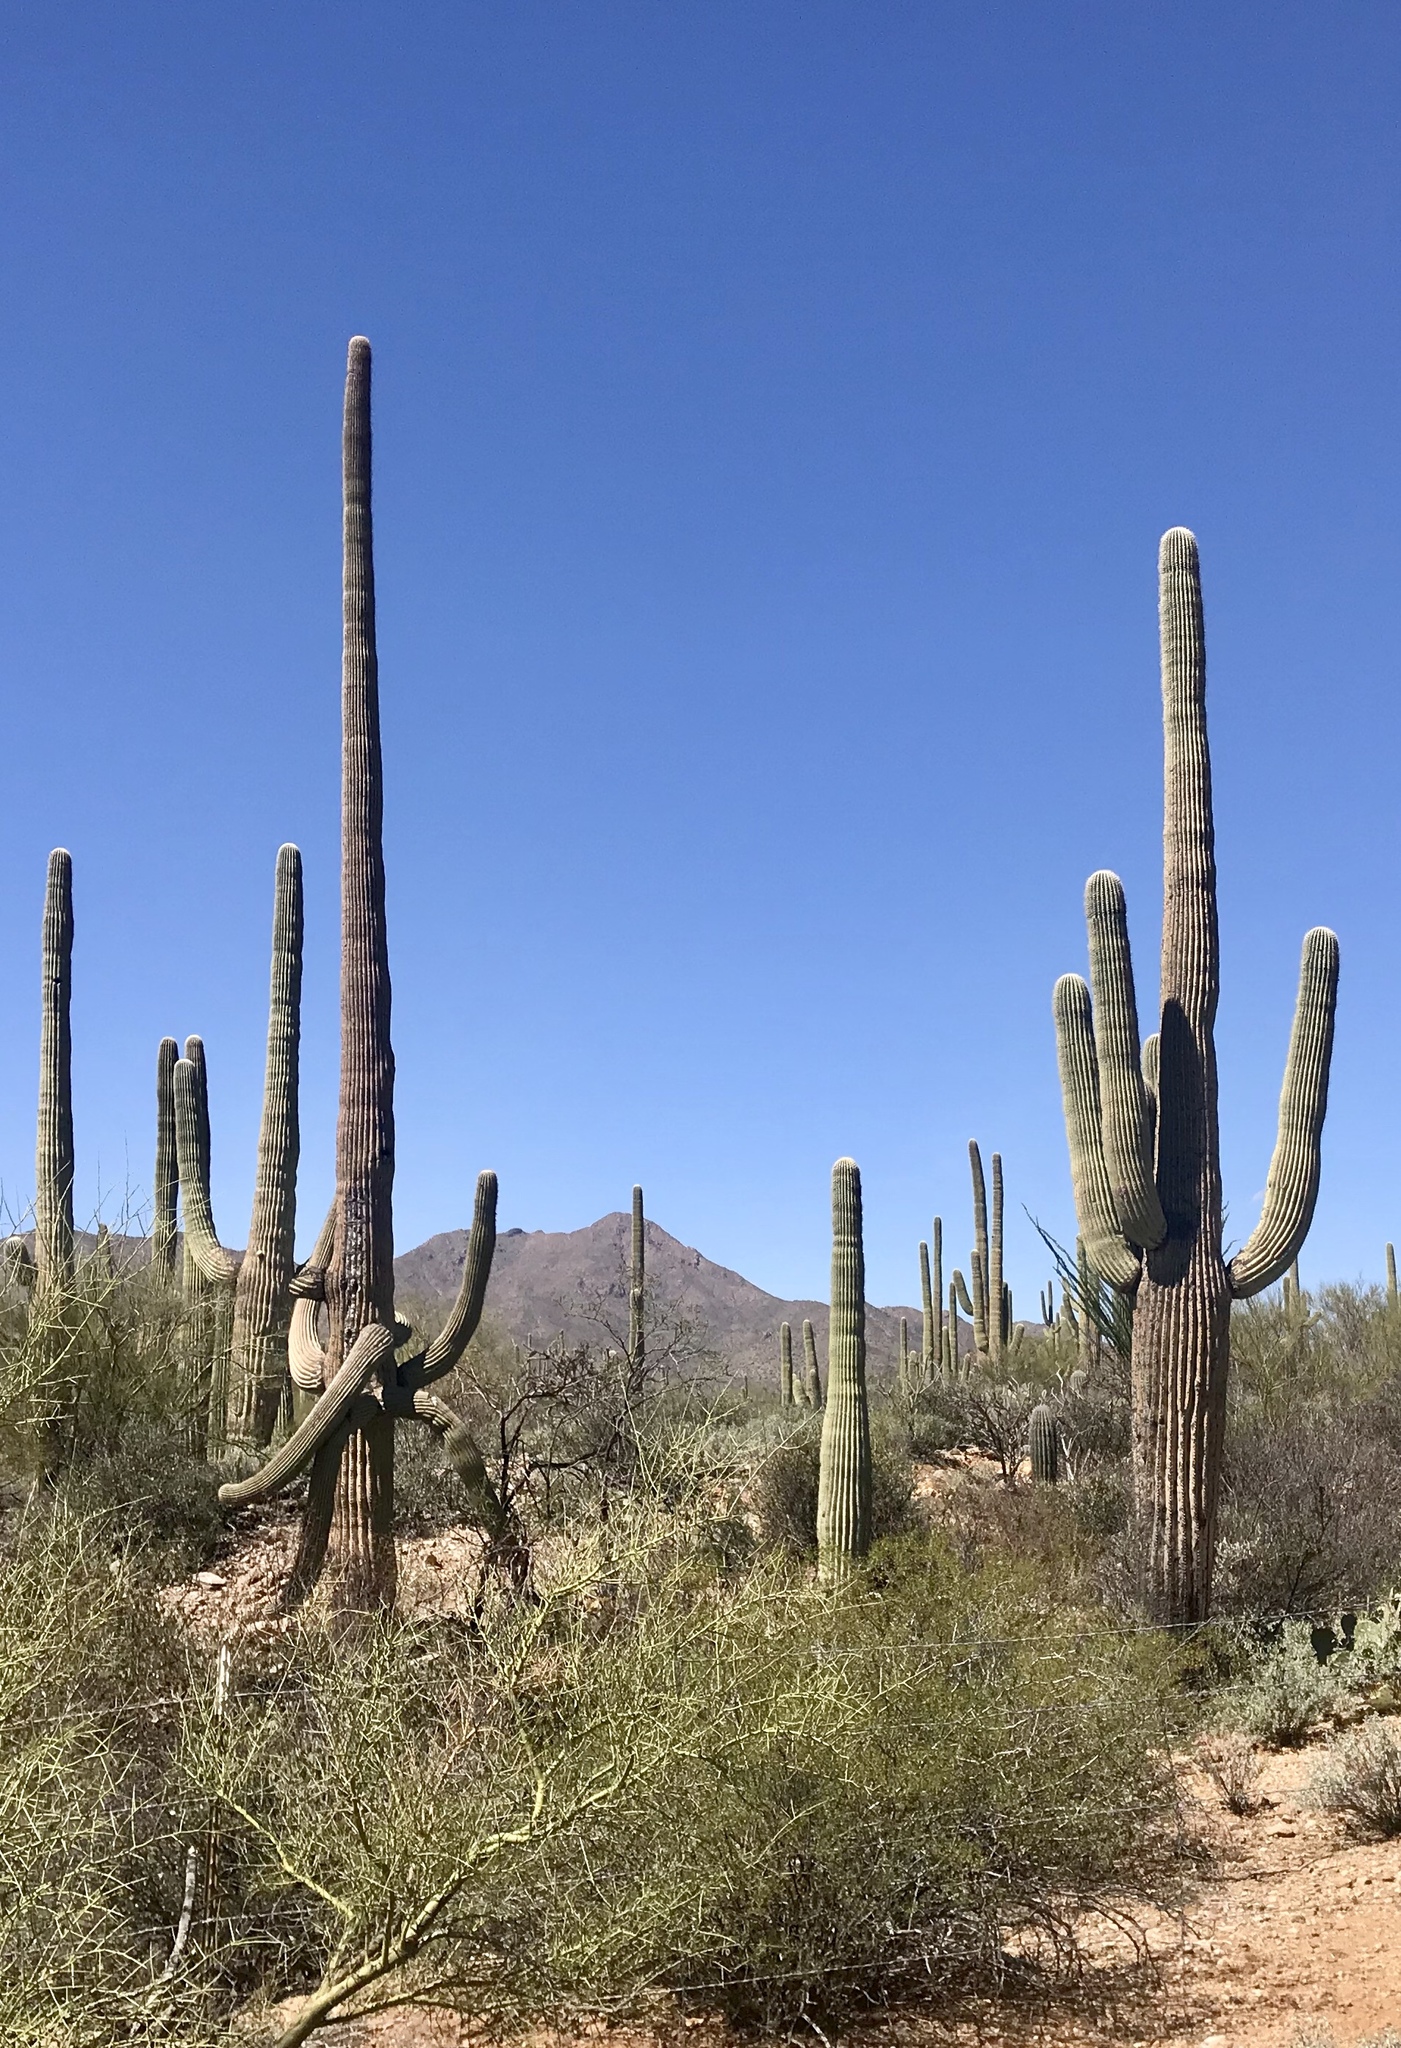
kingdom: Plantae
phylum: Tracheophyta
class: Magnoliopsida
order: Caryophyllales
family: Cactaceae
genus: Carnegiea
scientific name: Carnegiea gigantea
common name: Saguaro
